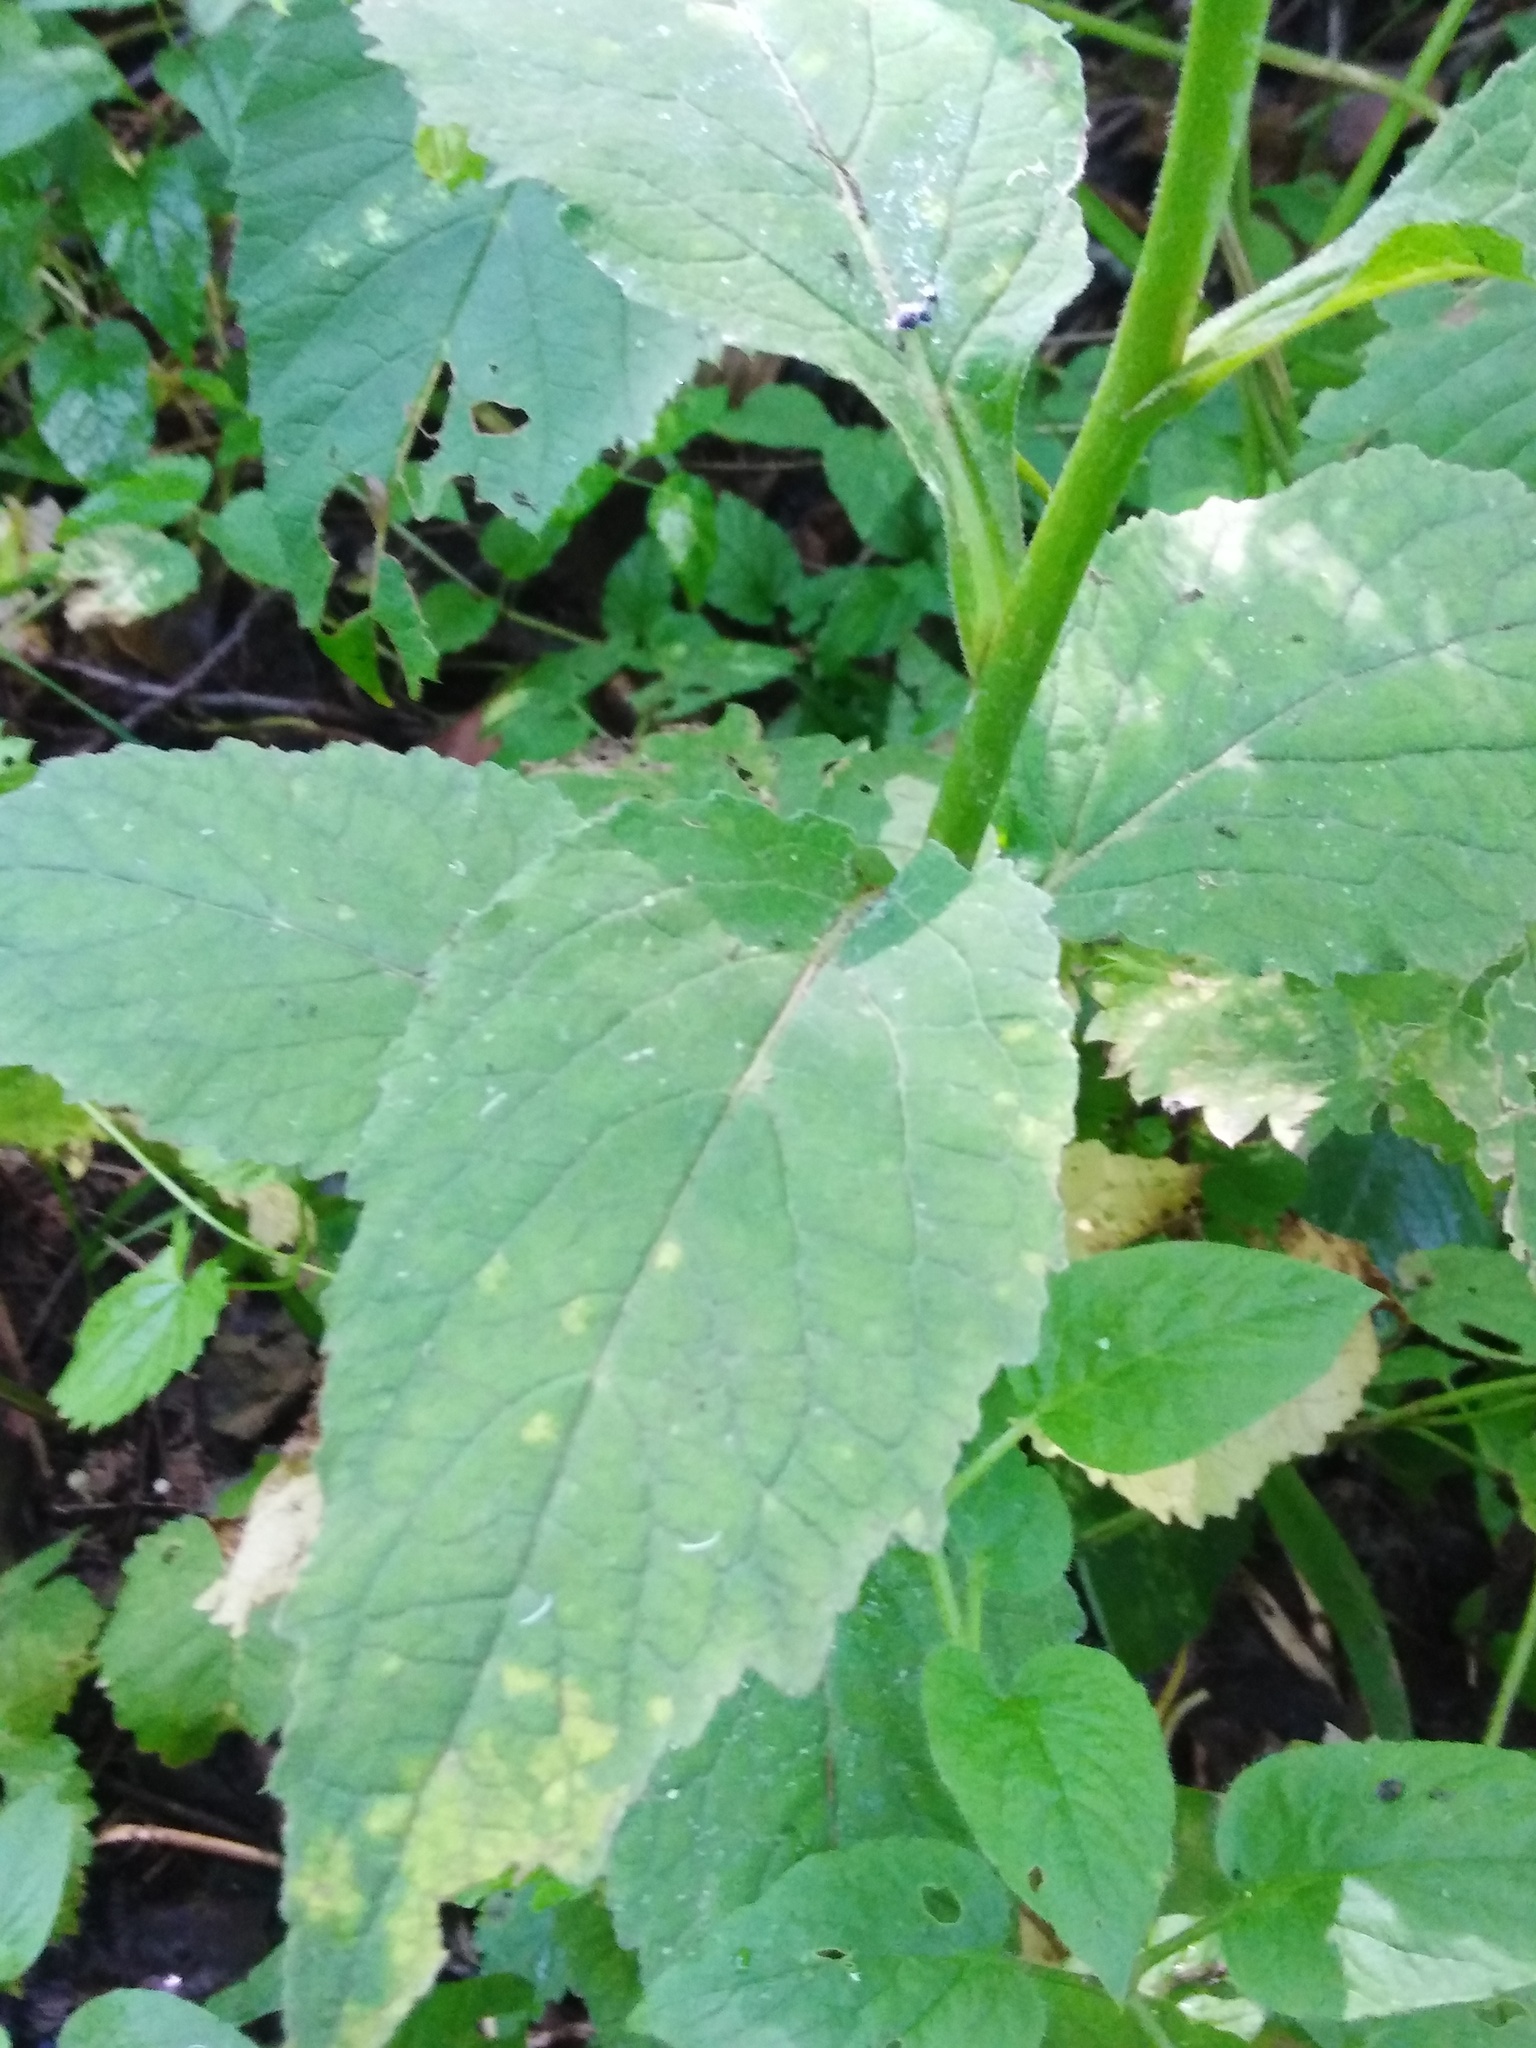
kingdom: Plantae
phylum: Tracheophyta
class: Magnoliopsida
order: Asterales
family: Campanulaceae
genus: Campanula
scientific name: Campanula latifolia
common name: Giant bellflower
